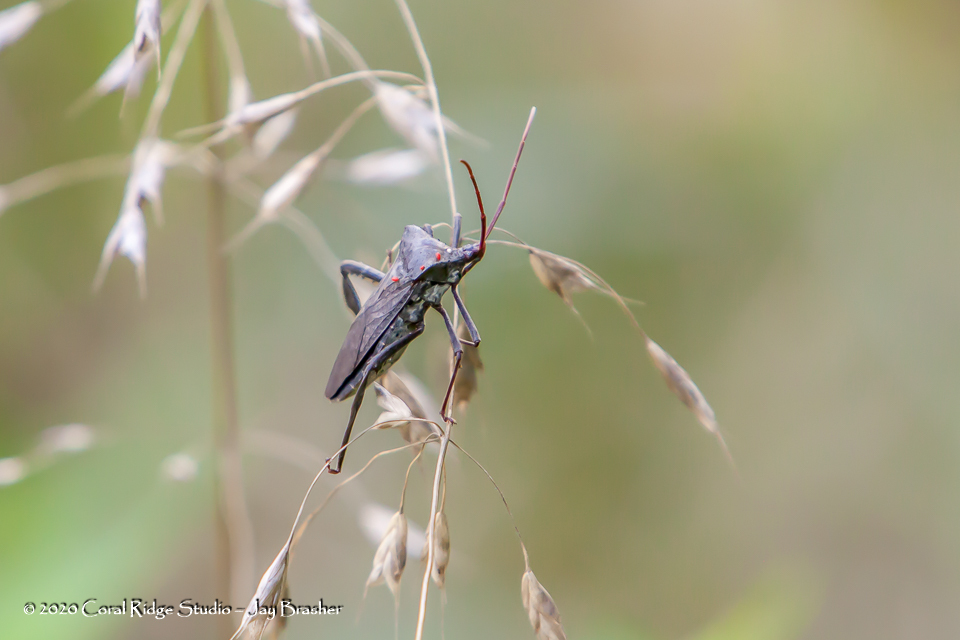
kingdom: Animalia
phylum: Arthropoda
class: Insecta
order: Hemiptera
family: Coreidae
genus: Acanthocephala
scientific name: Acanthocephala declivis
